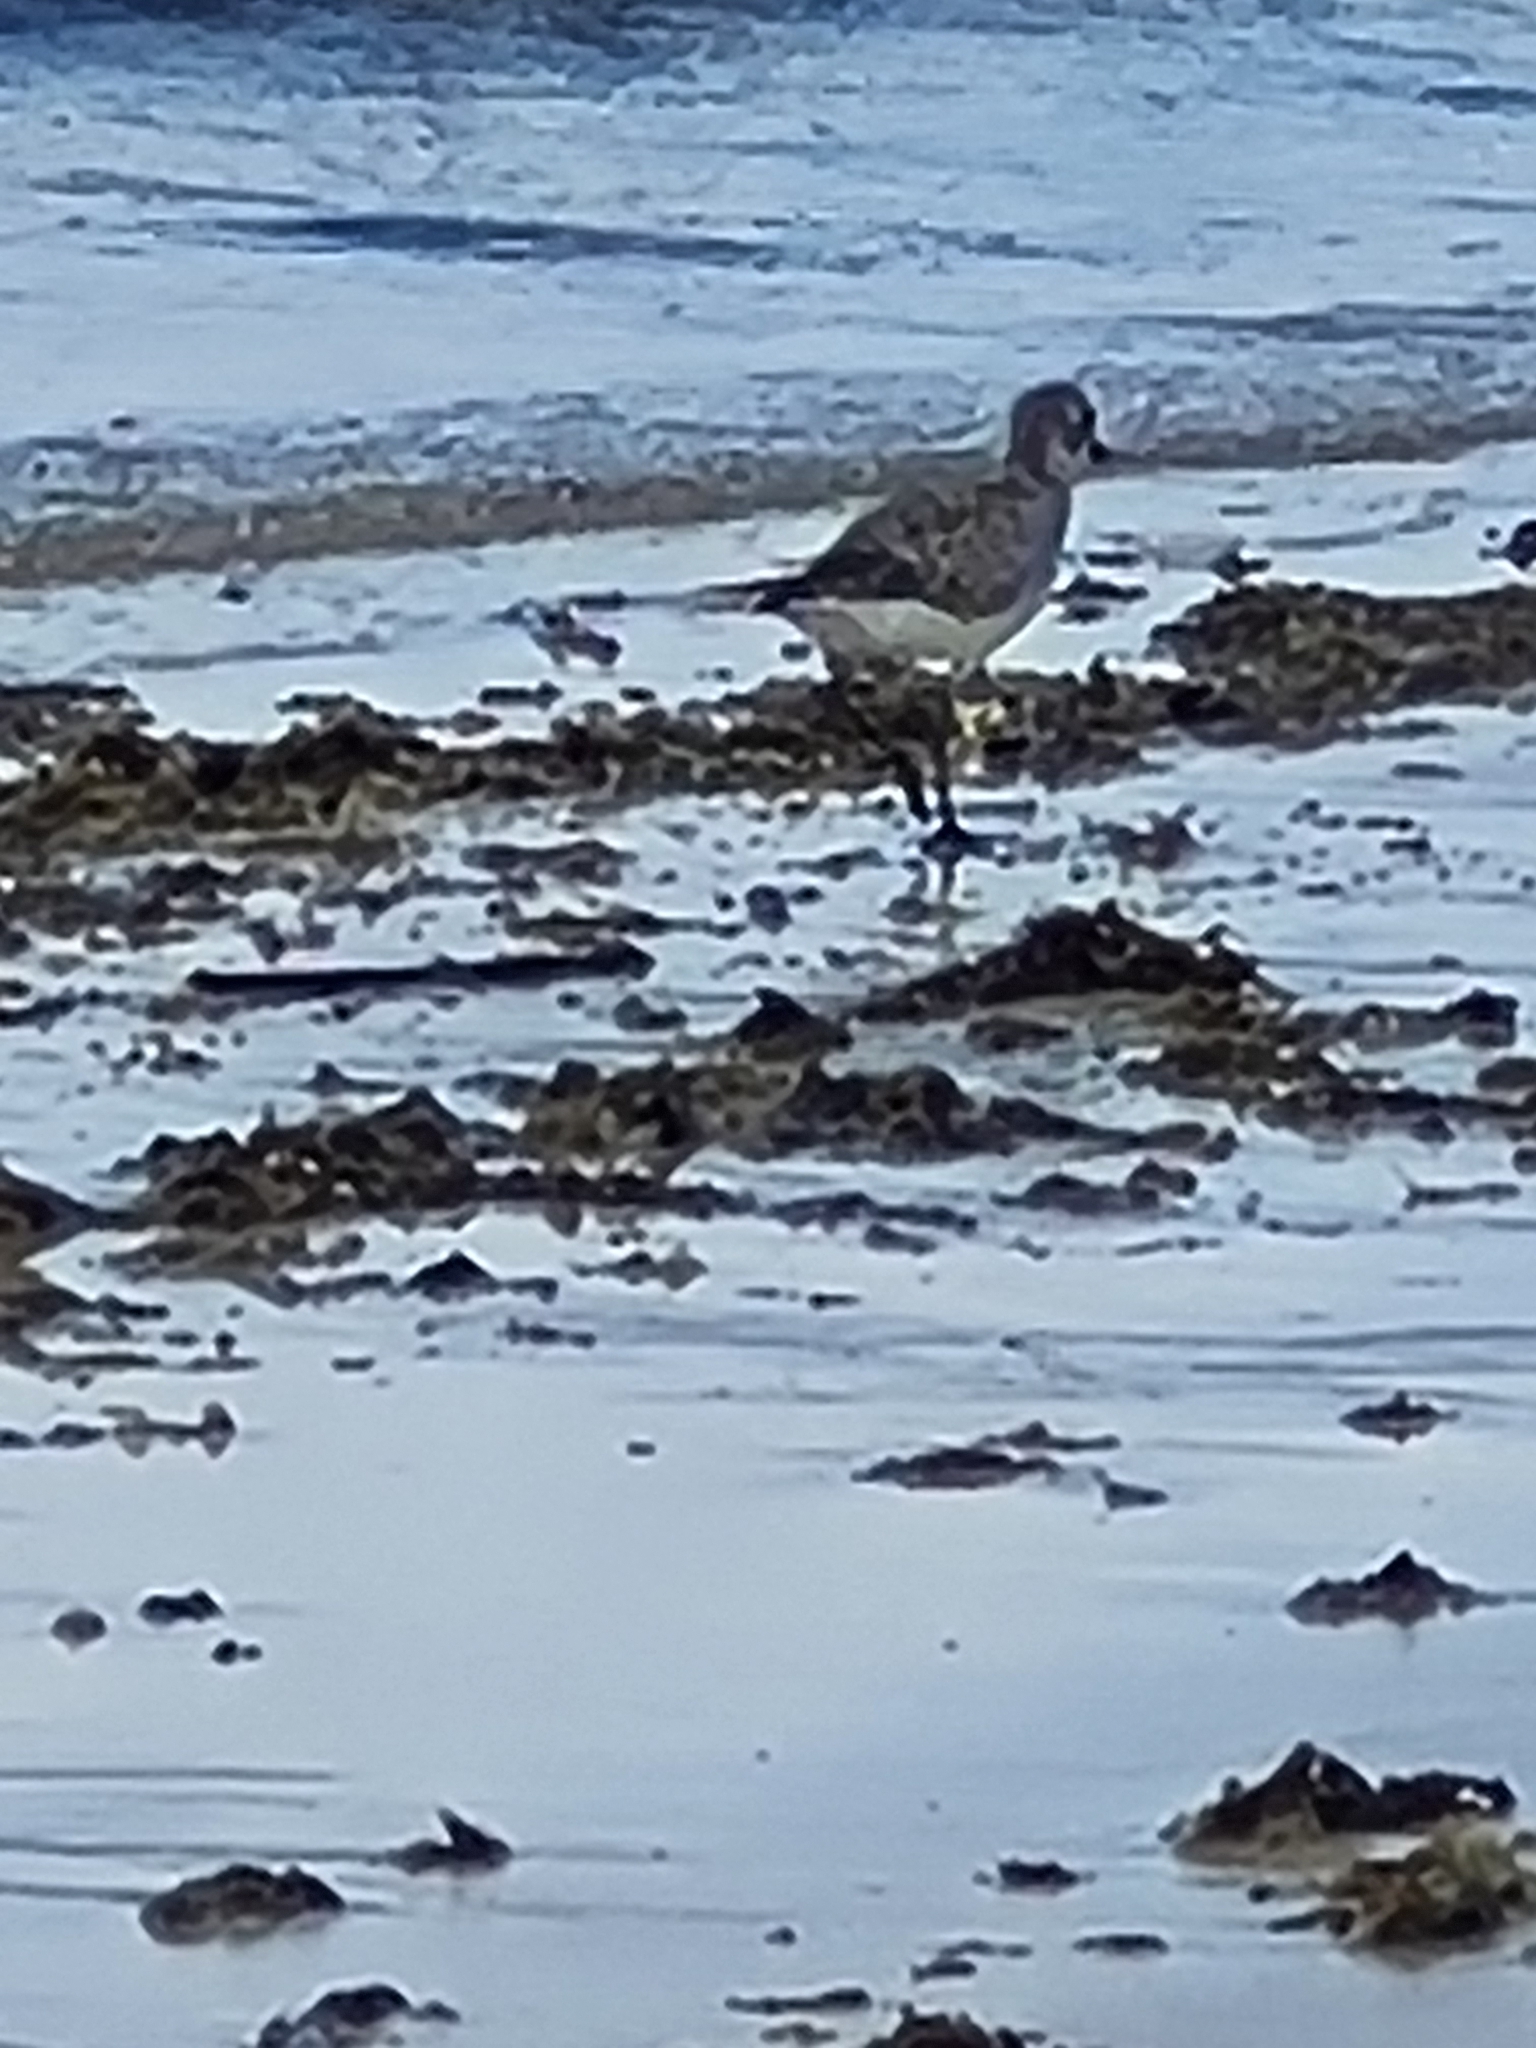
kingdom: Animalia
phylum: Chordata
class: Aves
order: Charadriiformes
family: Charadriidae
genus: Pluvialis
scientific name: Pluvialis squatarola
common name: Grey plover
